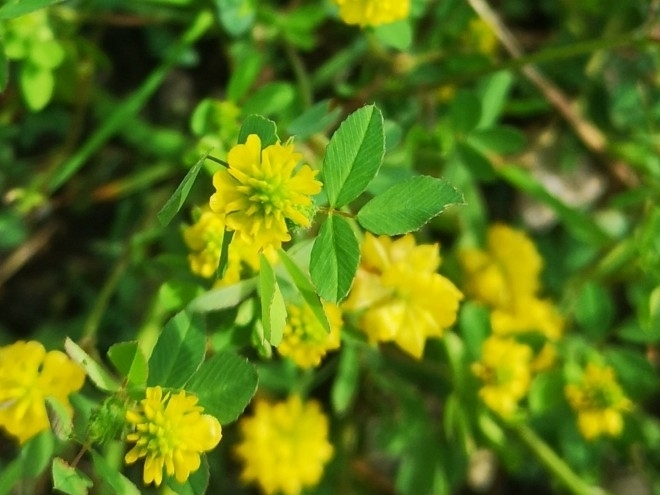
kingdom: Plantae
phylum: Tracheophyta
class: Magnoliopsida
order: Fabales
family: Fabaceae
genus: Trifolium
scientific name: Trifolium campestre
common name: Field clover
